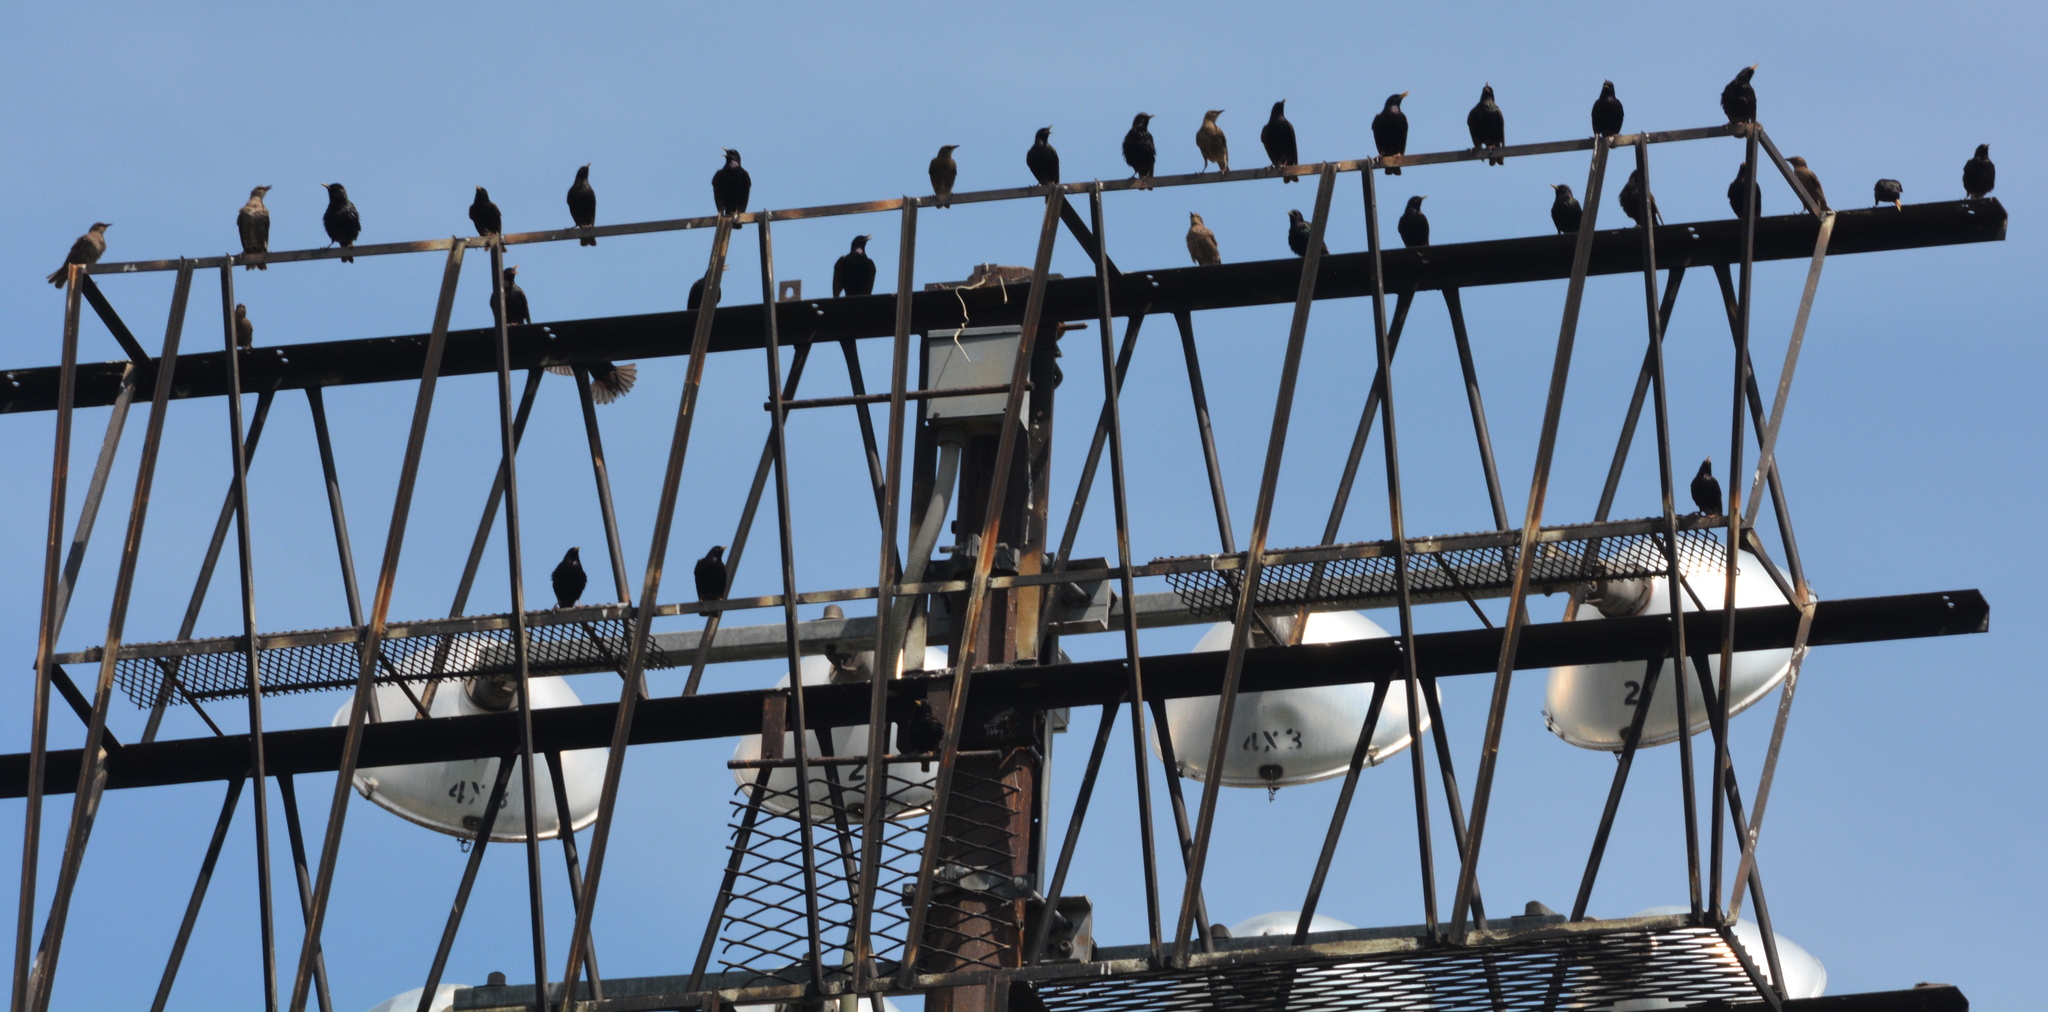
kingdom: Animalia
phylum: Chordata
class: Aves
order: Passeriformes
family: Sturnidae
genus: Sturnus
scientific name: Sturnus vulgaris
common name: Common starling
